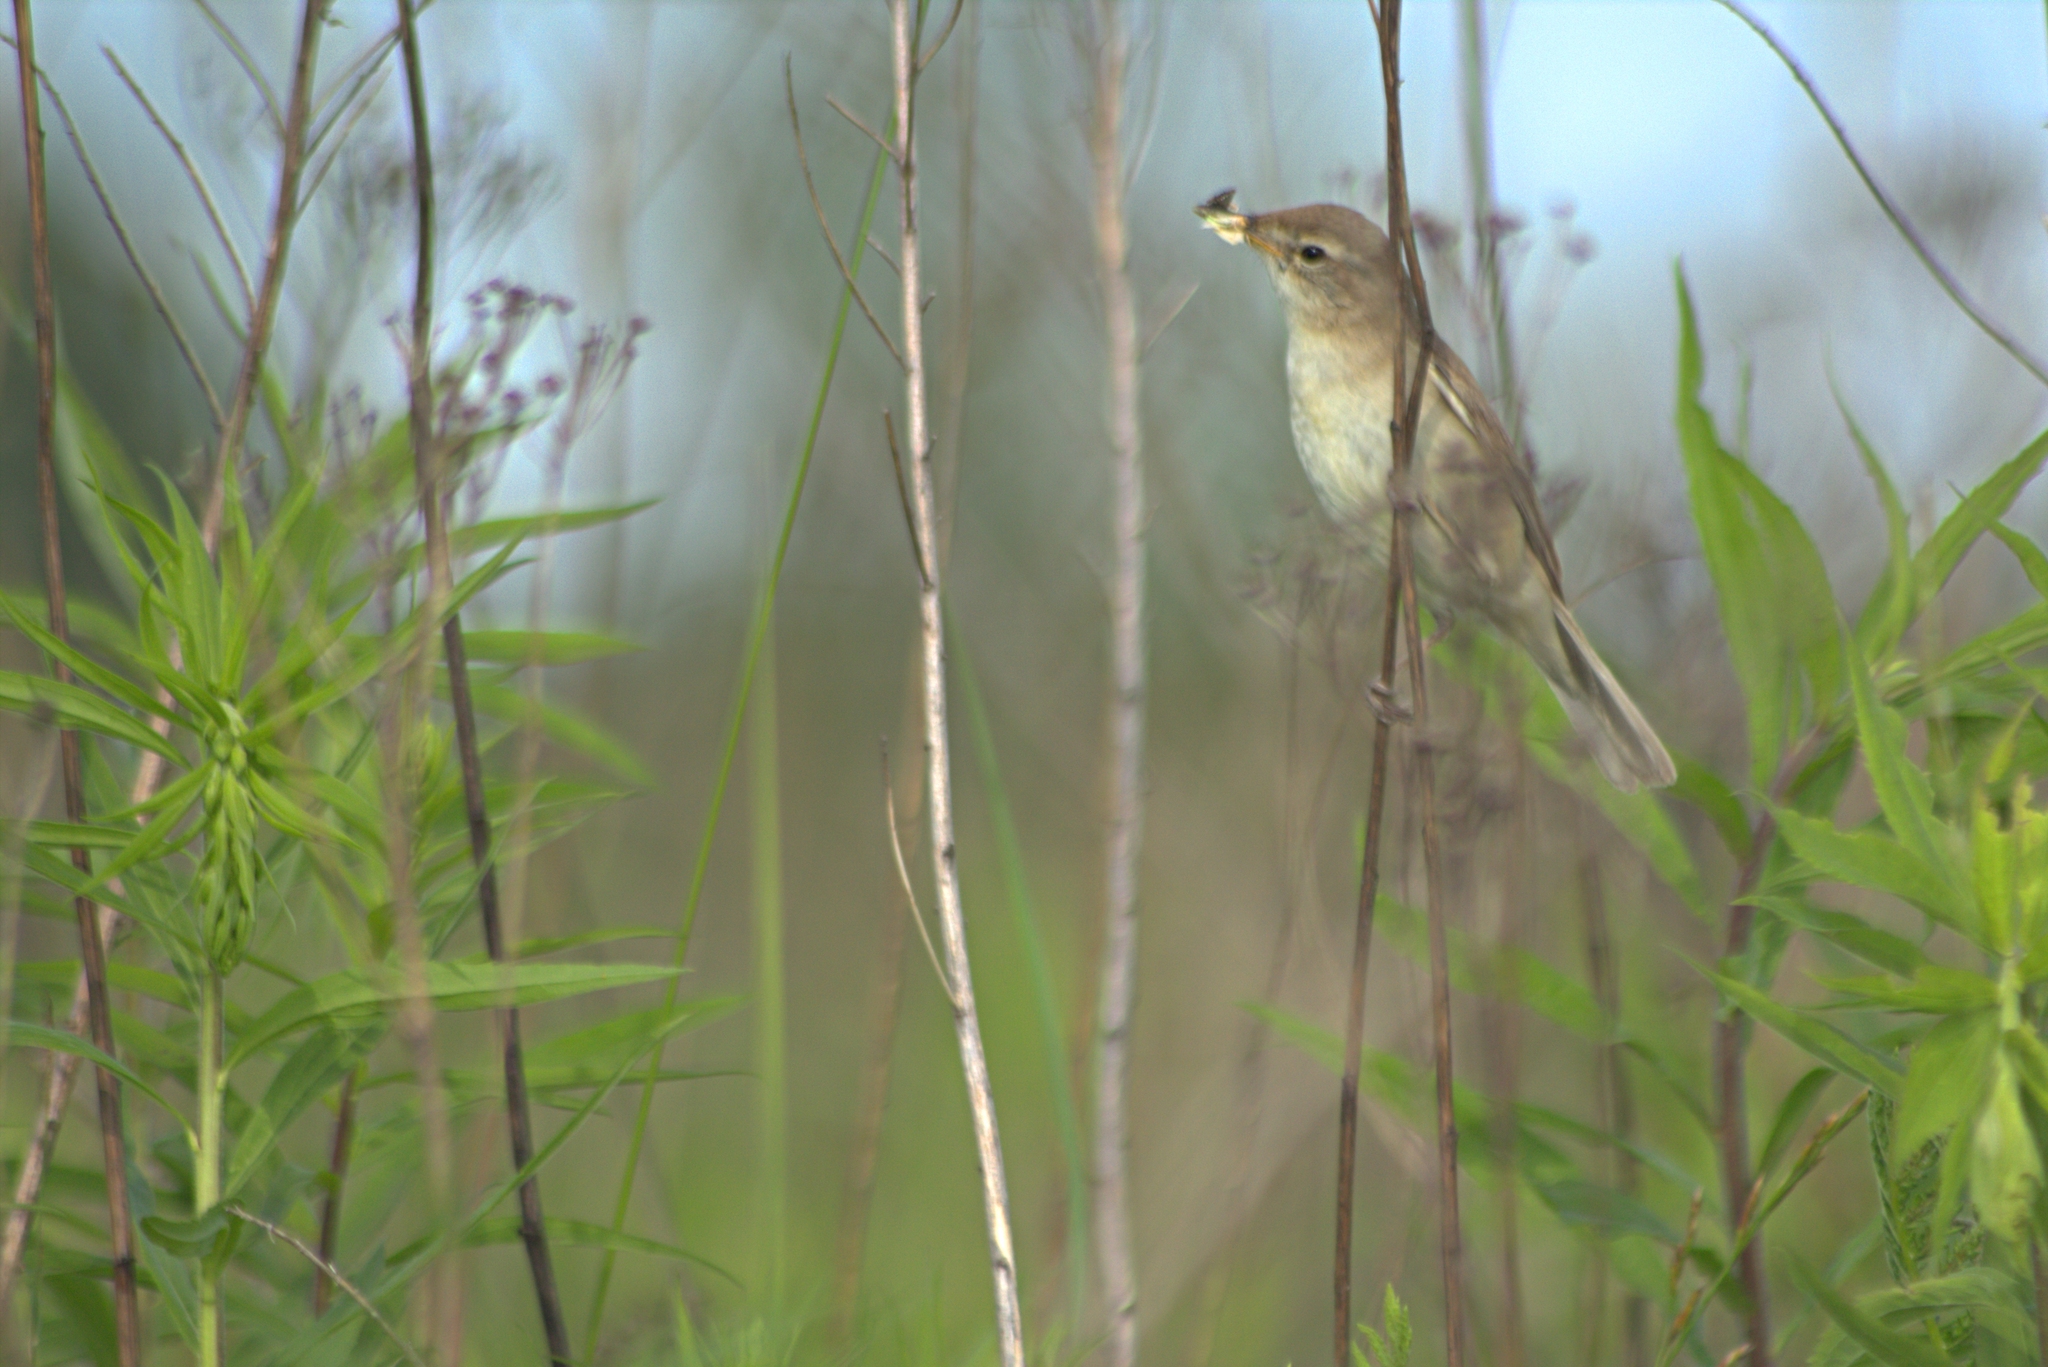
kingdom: Animalia
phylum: Chordata
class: Aves
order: Passeriformes
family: Acrocephalidae
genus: Iduna
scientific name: Iduna caligata
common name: Booted warbler
